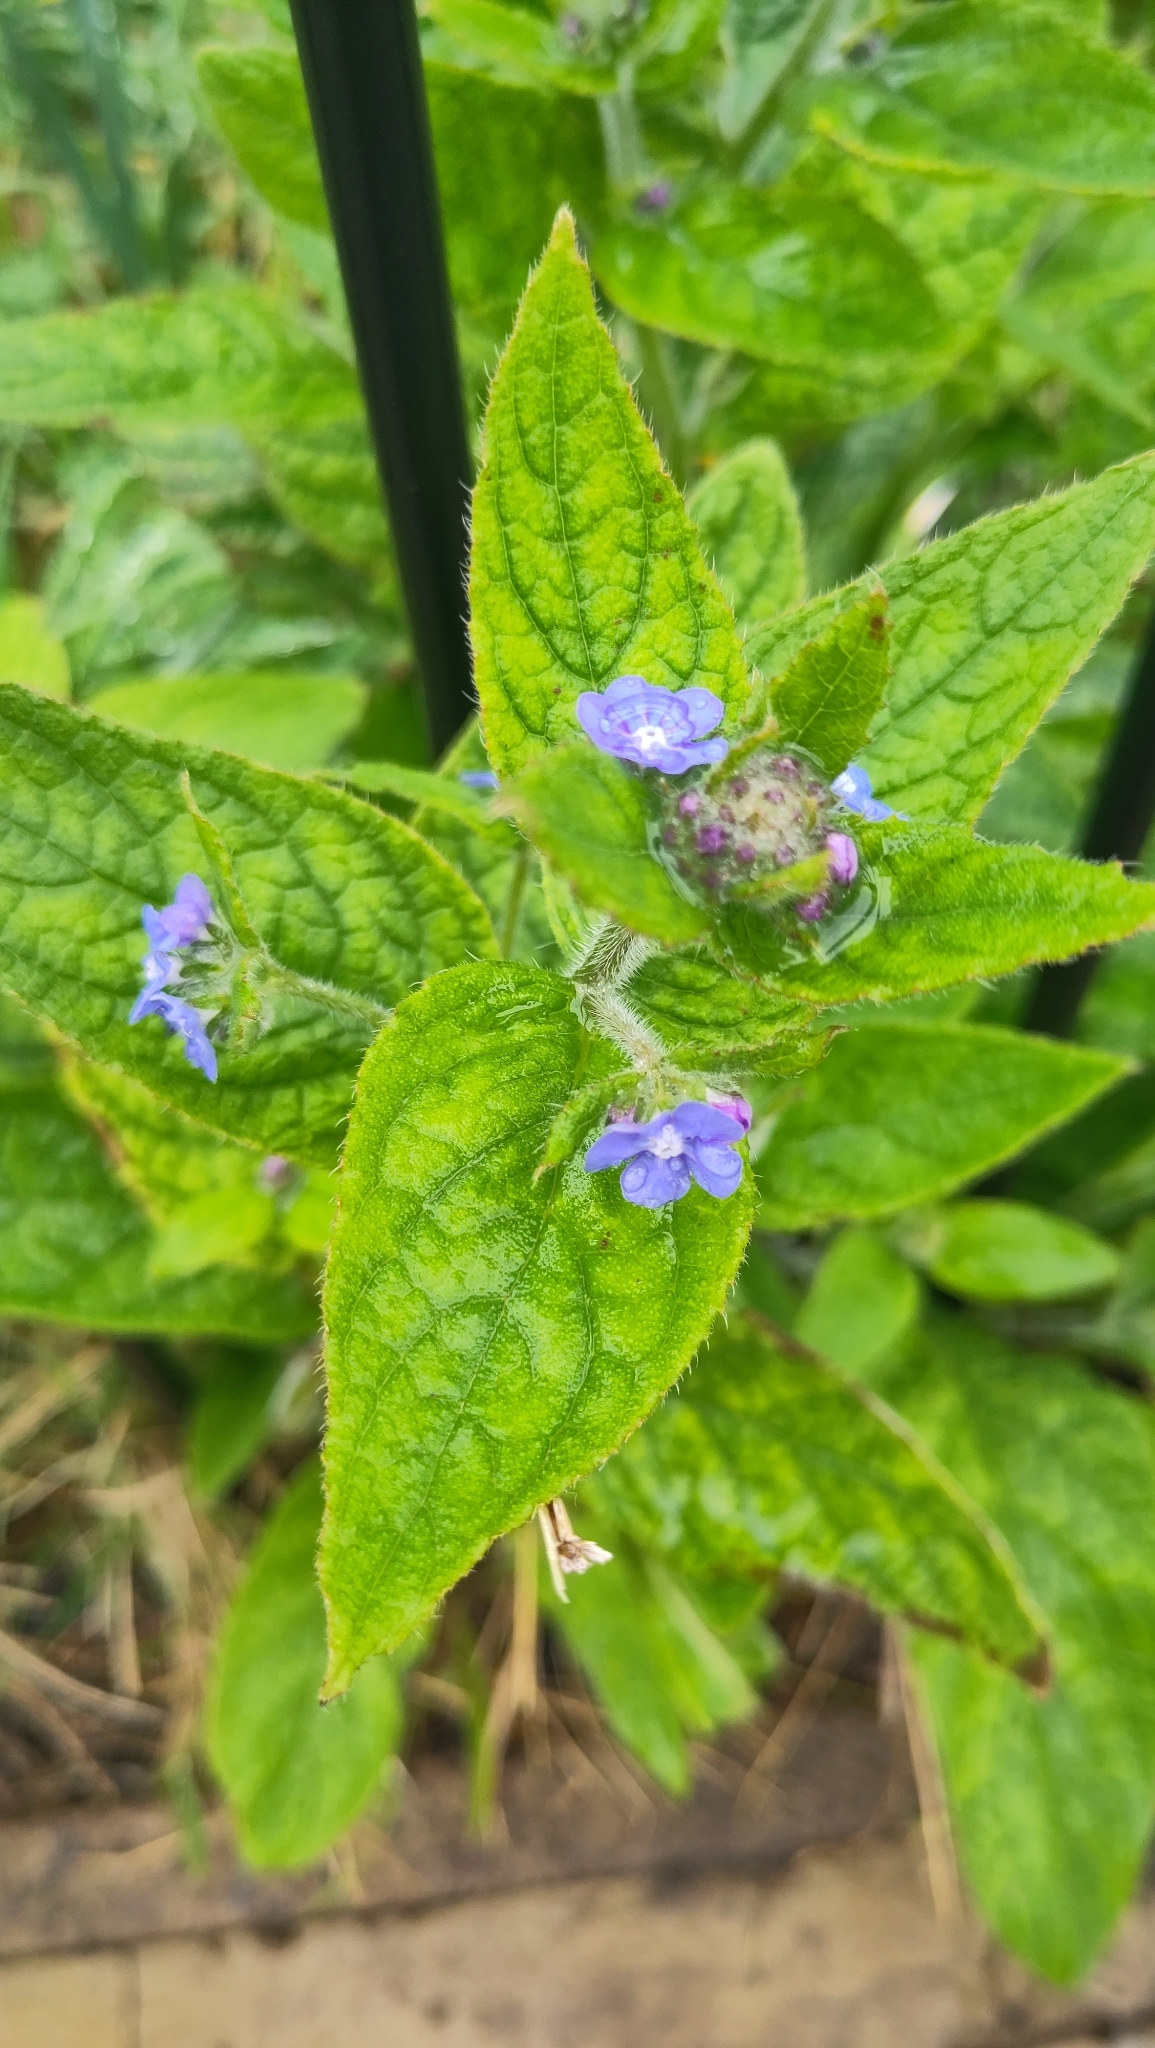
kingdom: Plantae
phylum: Tracheophyta
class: Magnoliopsida
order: Boraginales
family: Boraginaceae
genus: Pentaglottis
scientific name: Pentaglottis sempervirens
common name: Green alkanet
